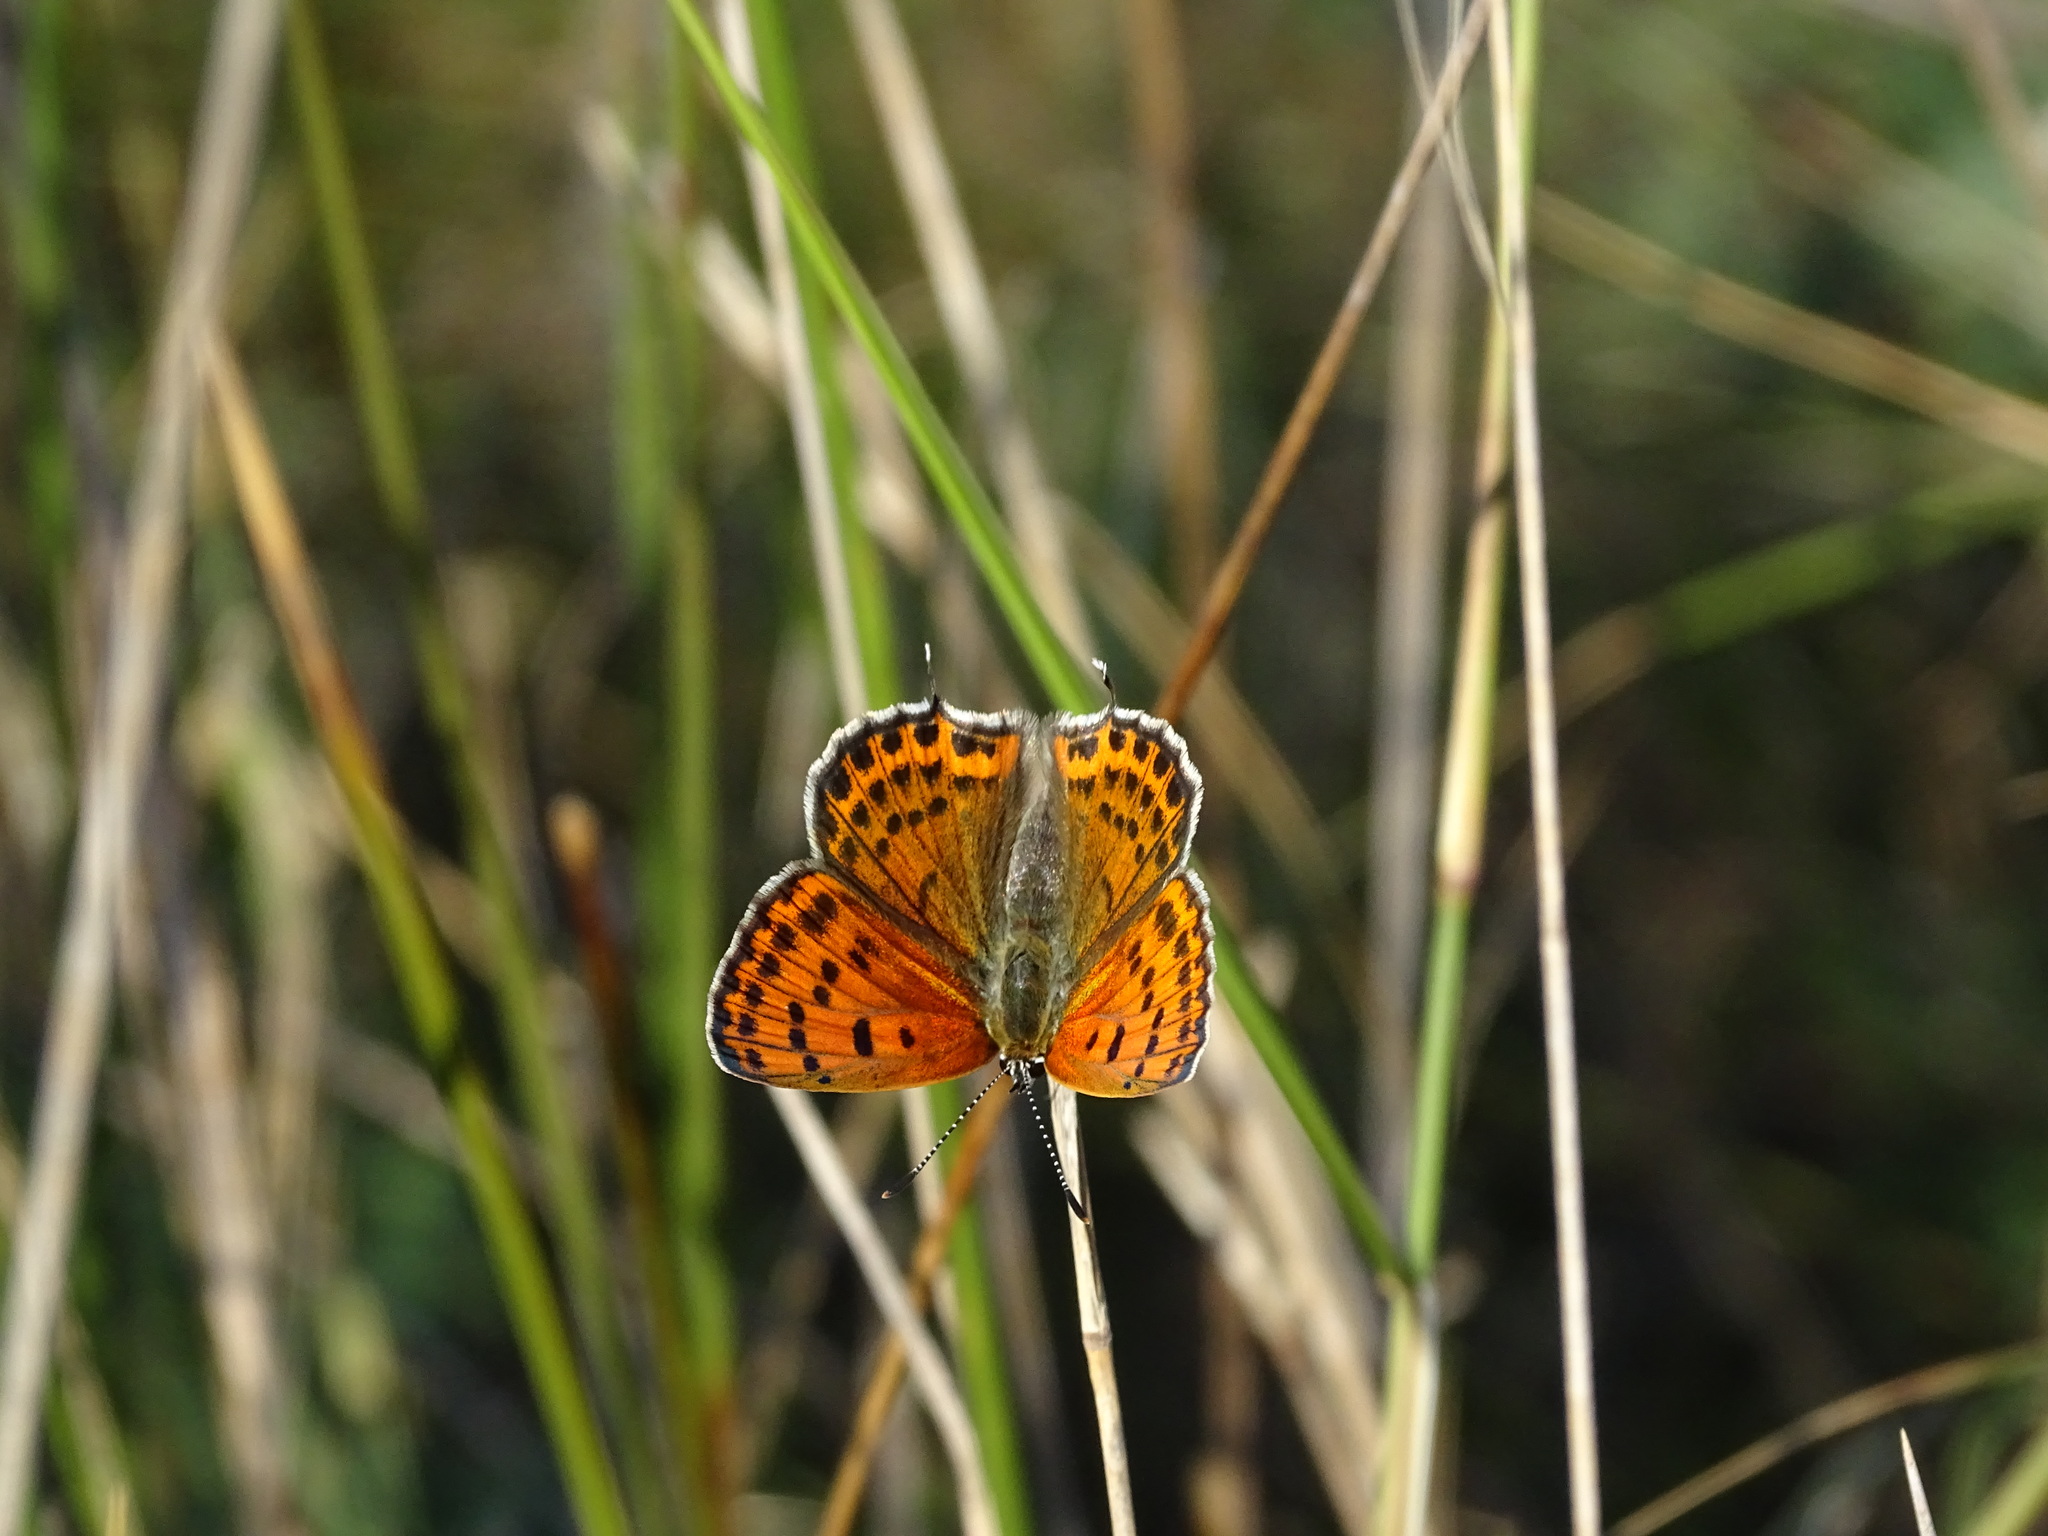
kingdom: Animalia
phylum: Arthropoda
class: Insecta
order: Lepidoptera
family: Lycaenidae
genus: Thersamonia
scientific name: Thersamonia thersamon
